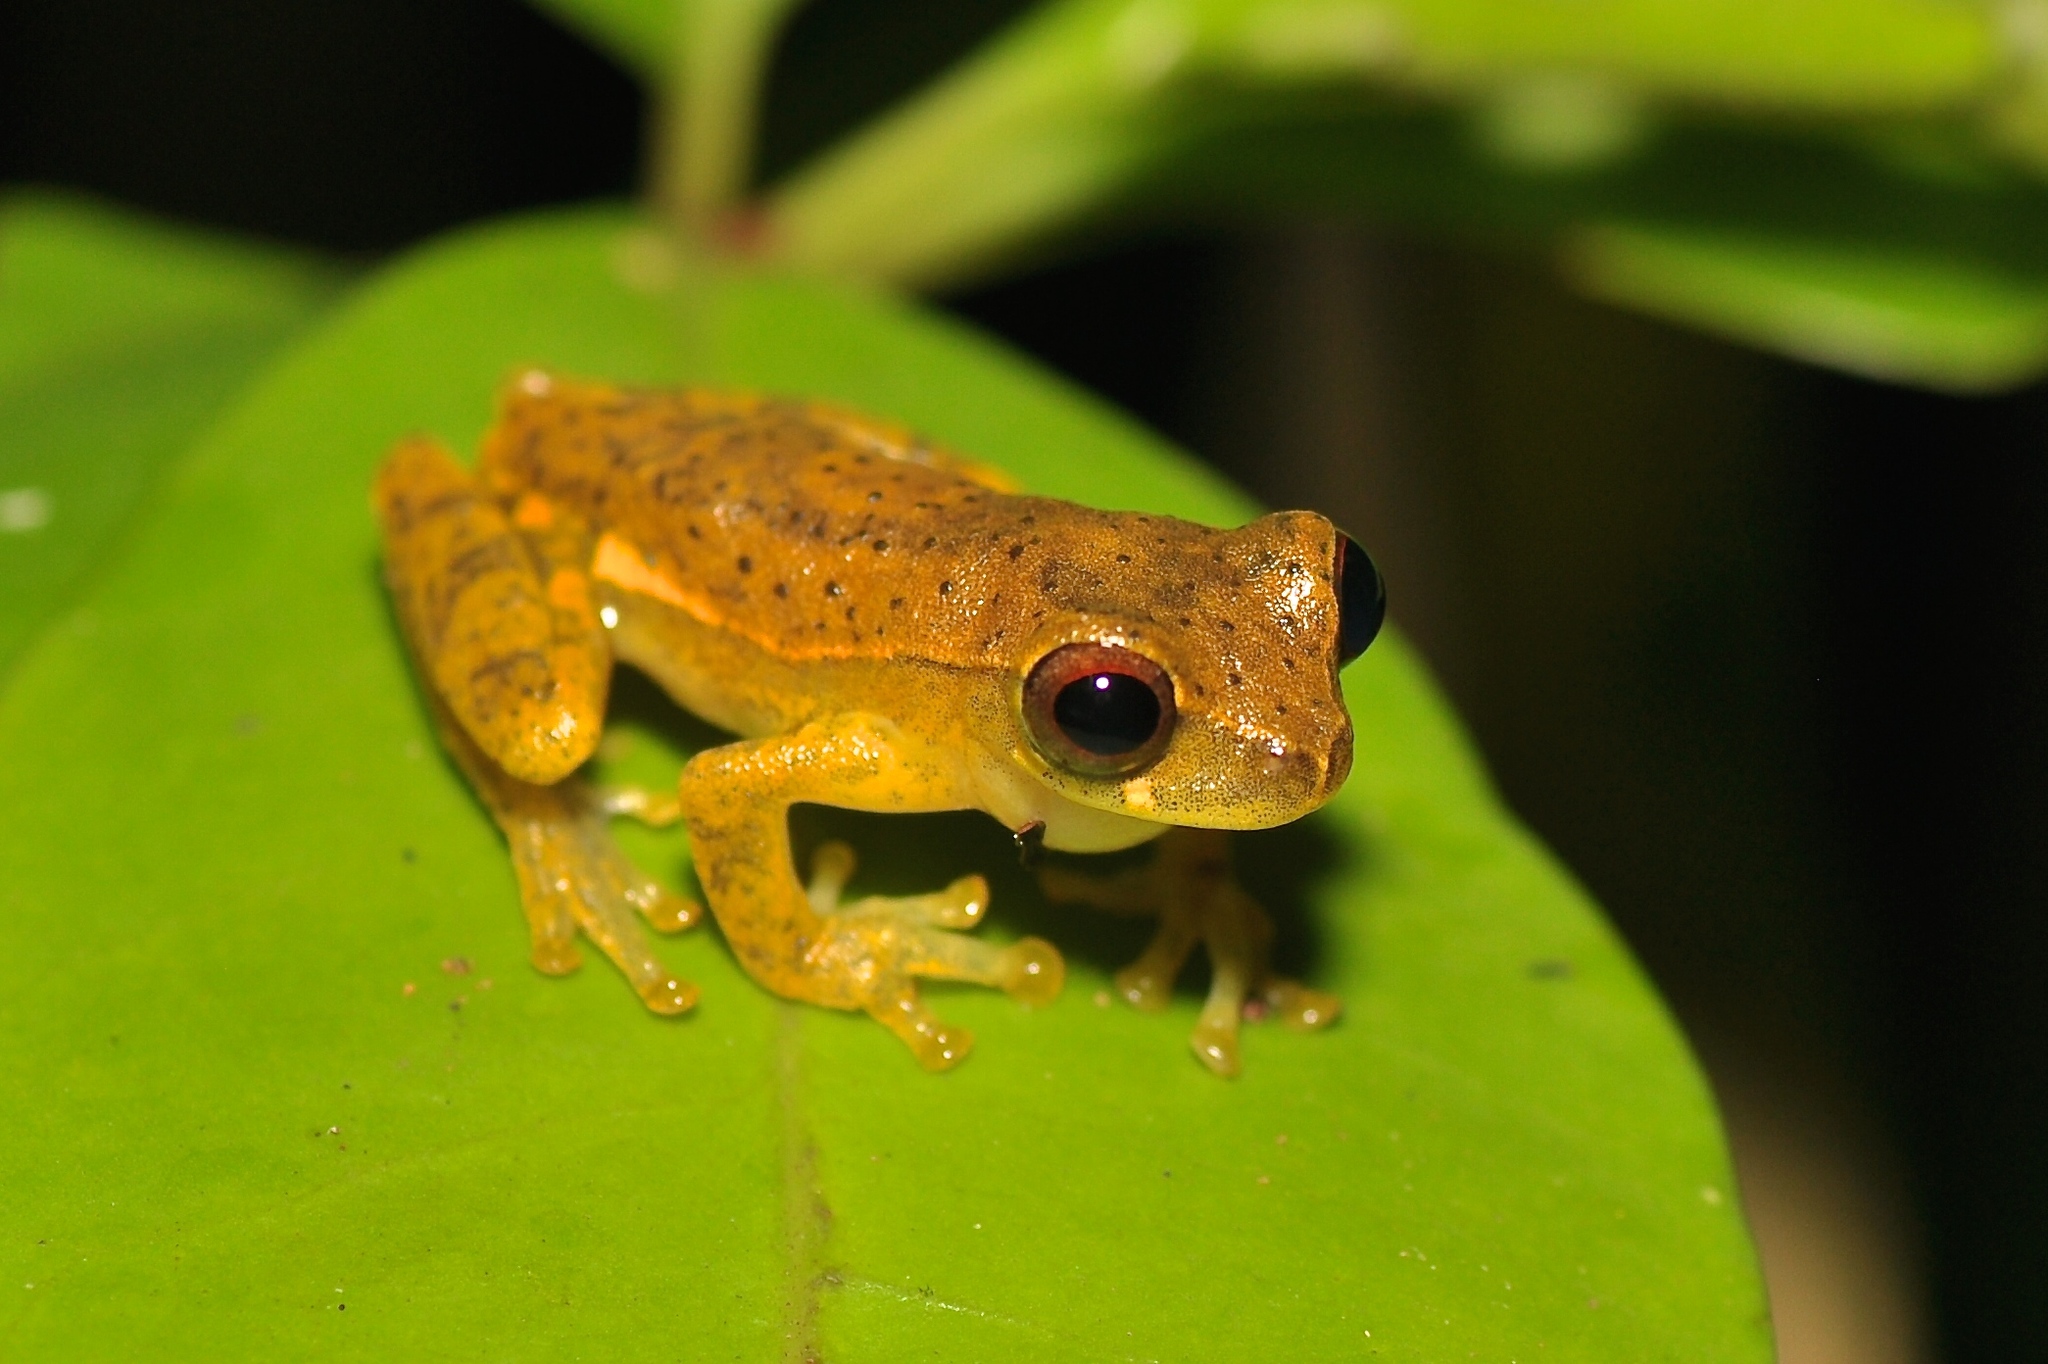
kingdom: Animalia
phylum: Chordata
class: Amphibia
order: Anura
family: Hylidae
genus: Dendropsophus
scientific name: Dendropsophus brevifrons
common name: Crump´s treefrog
